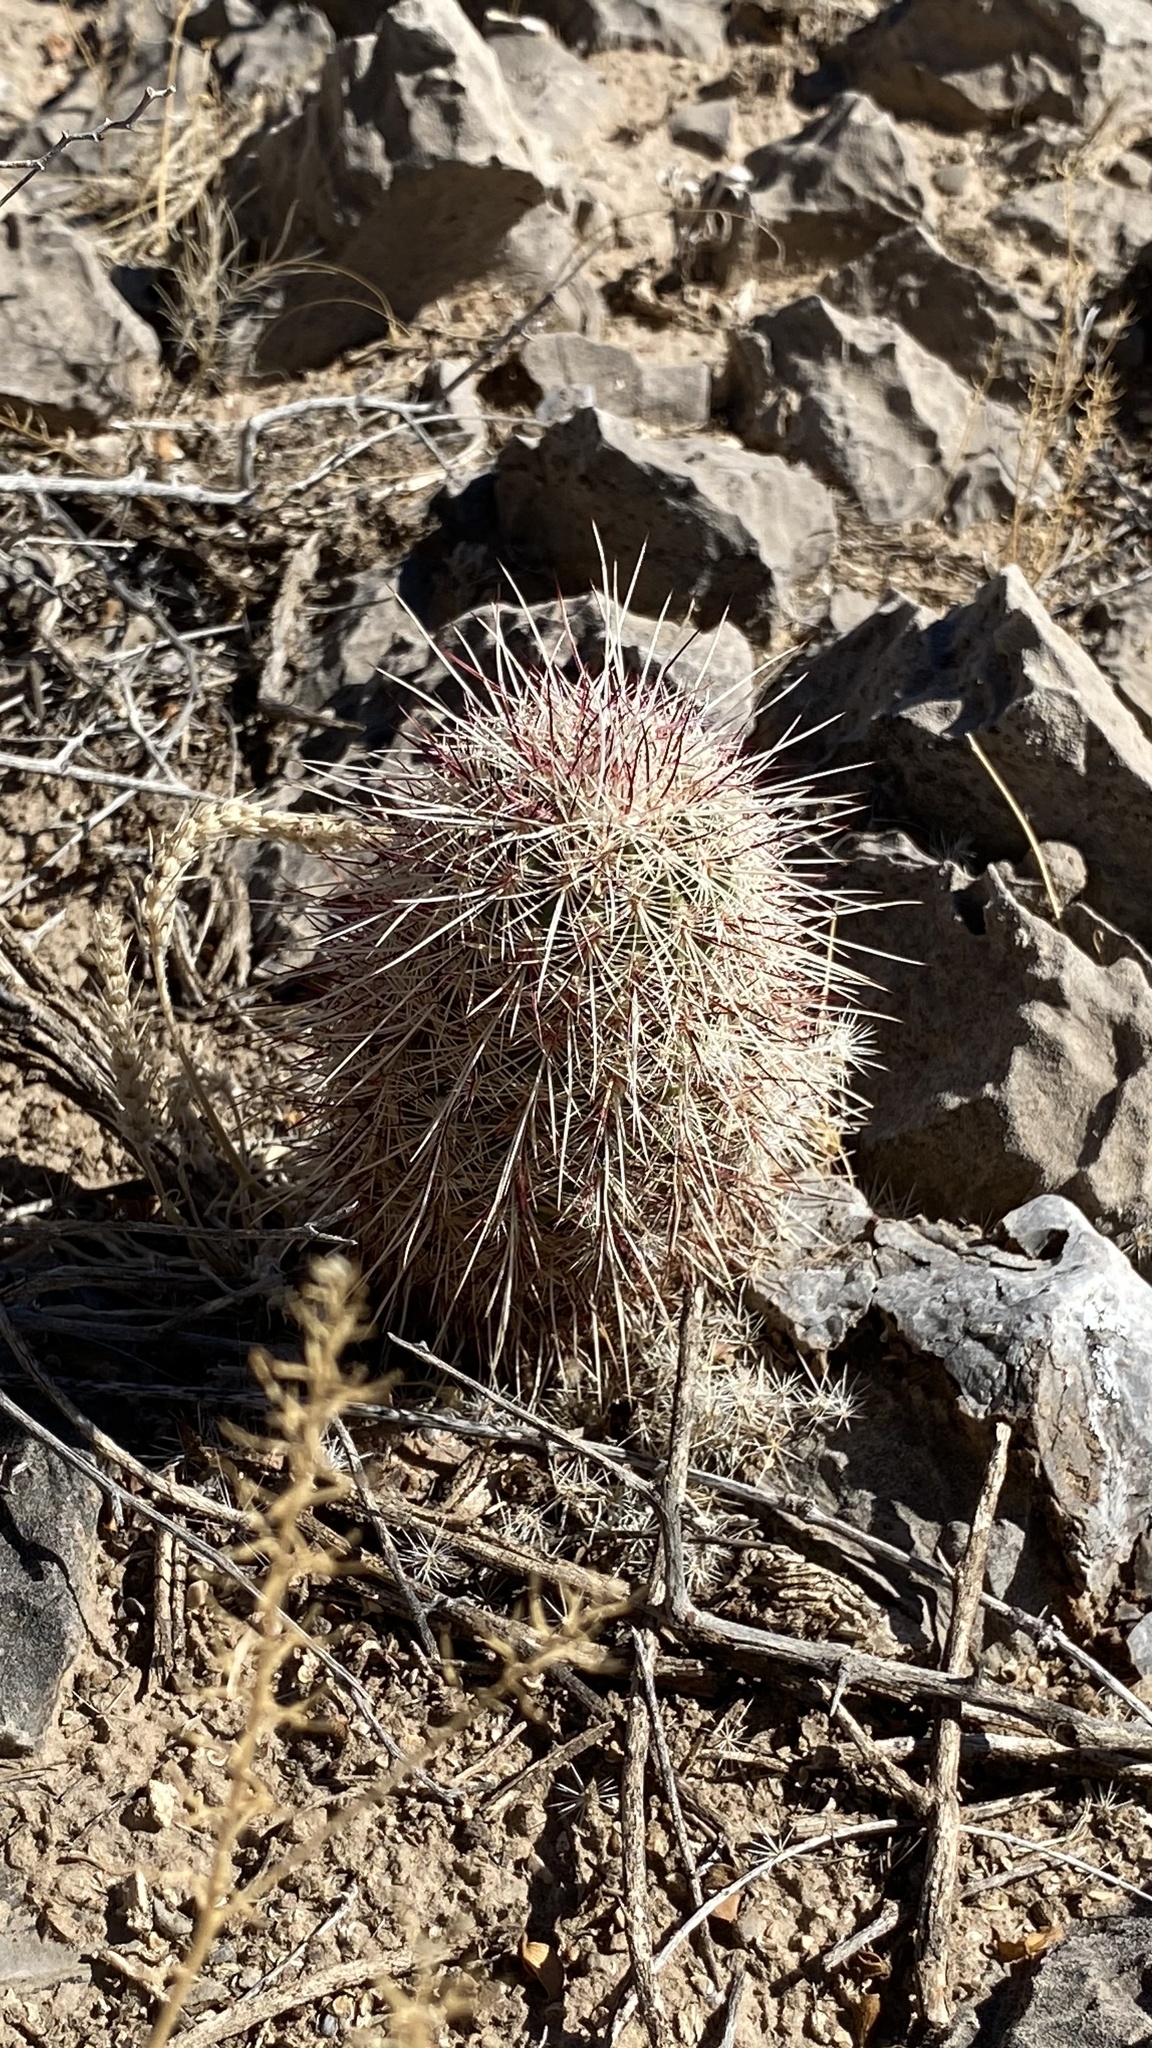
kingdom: Plantae
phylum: Tracheophyta
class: Magnoliopsida
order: Caryophyllales
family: Cactaceae
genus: Echinocereus
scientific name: Echinocereus viridiflorus
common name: Nylon hedgehog cactus
